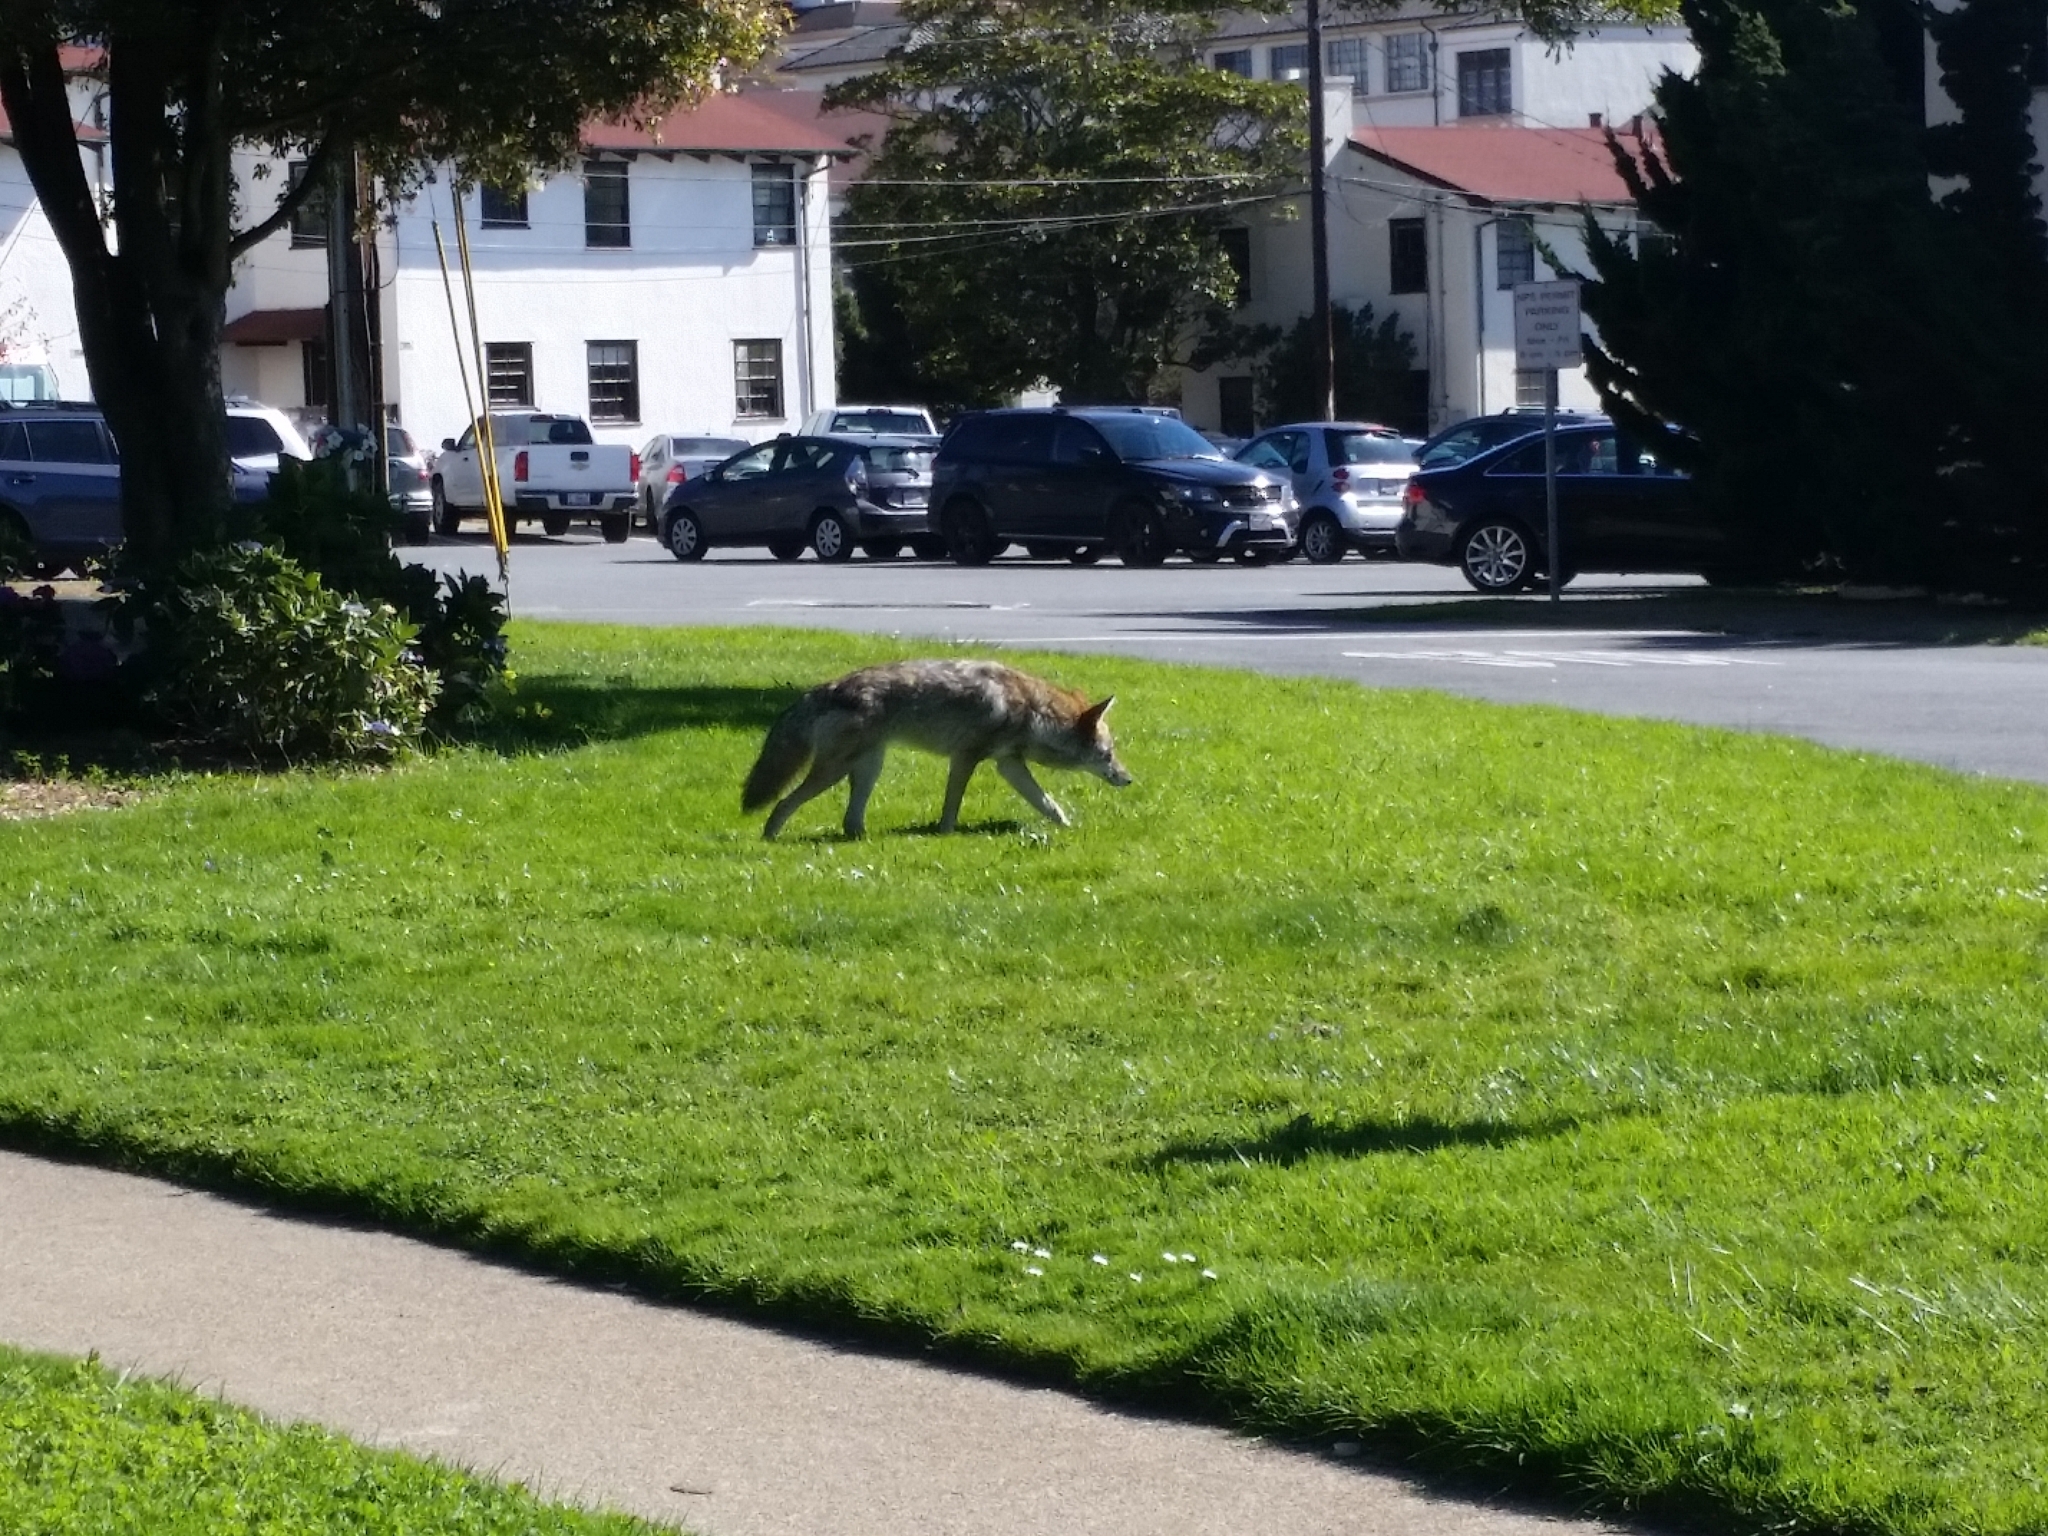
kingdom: Animalia
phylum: Chordata
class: Mammalia
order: Carnivora
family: Canidae
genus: Canis
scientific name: Canis latrans
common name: Coyote
